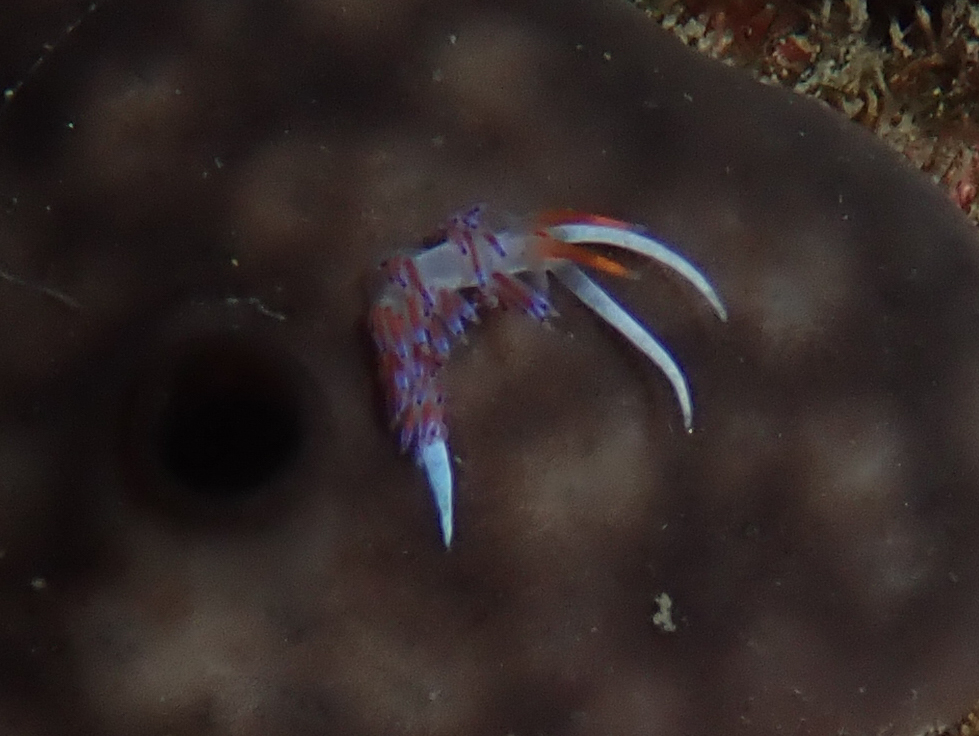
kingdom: Animalia
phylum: Mollusca
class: Gastropoda
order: Nudibranchia
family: Facelinidae
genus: Cratena
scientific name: Cratena peregrina
